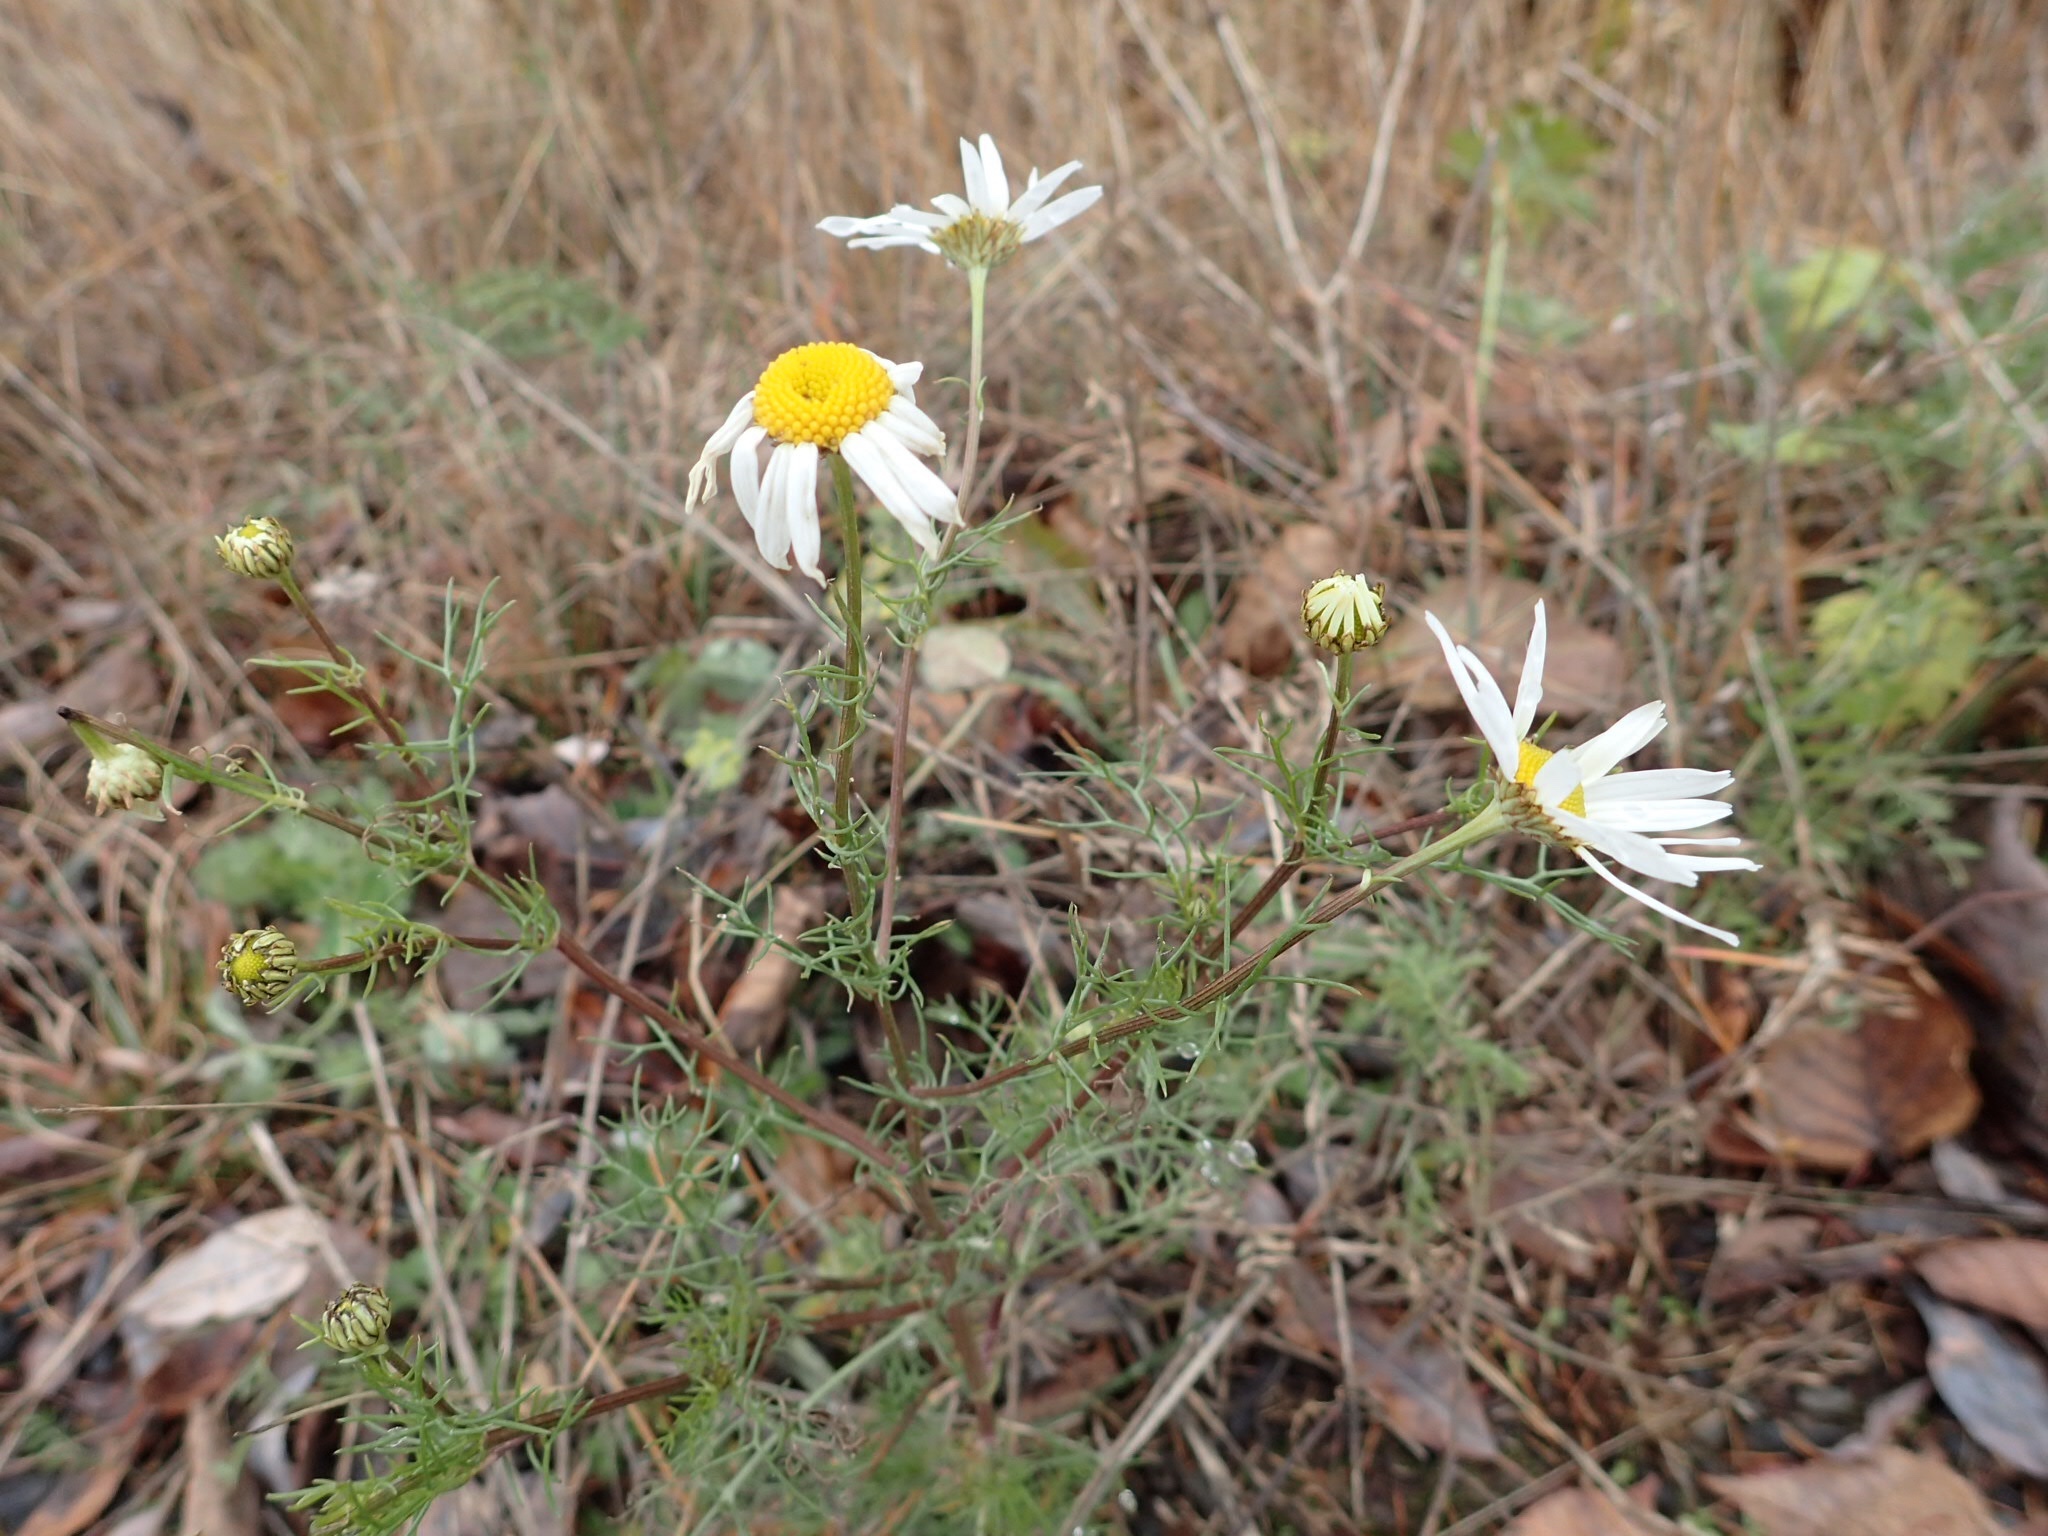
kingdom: Plantae
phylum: Tracheophyta
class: Magnoliopsida
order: Asterales
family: Asteraceae
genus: Tripleurospermum
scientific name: Tripleurospermum inodorum
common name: Scentless mayweed
